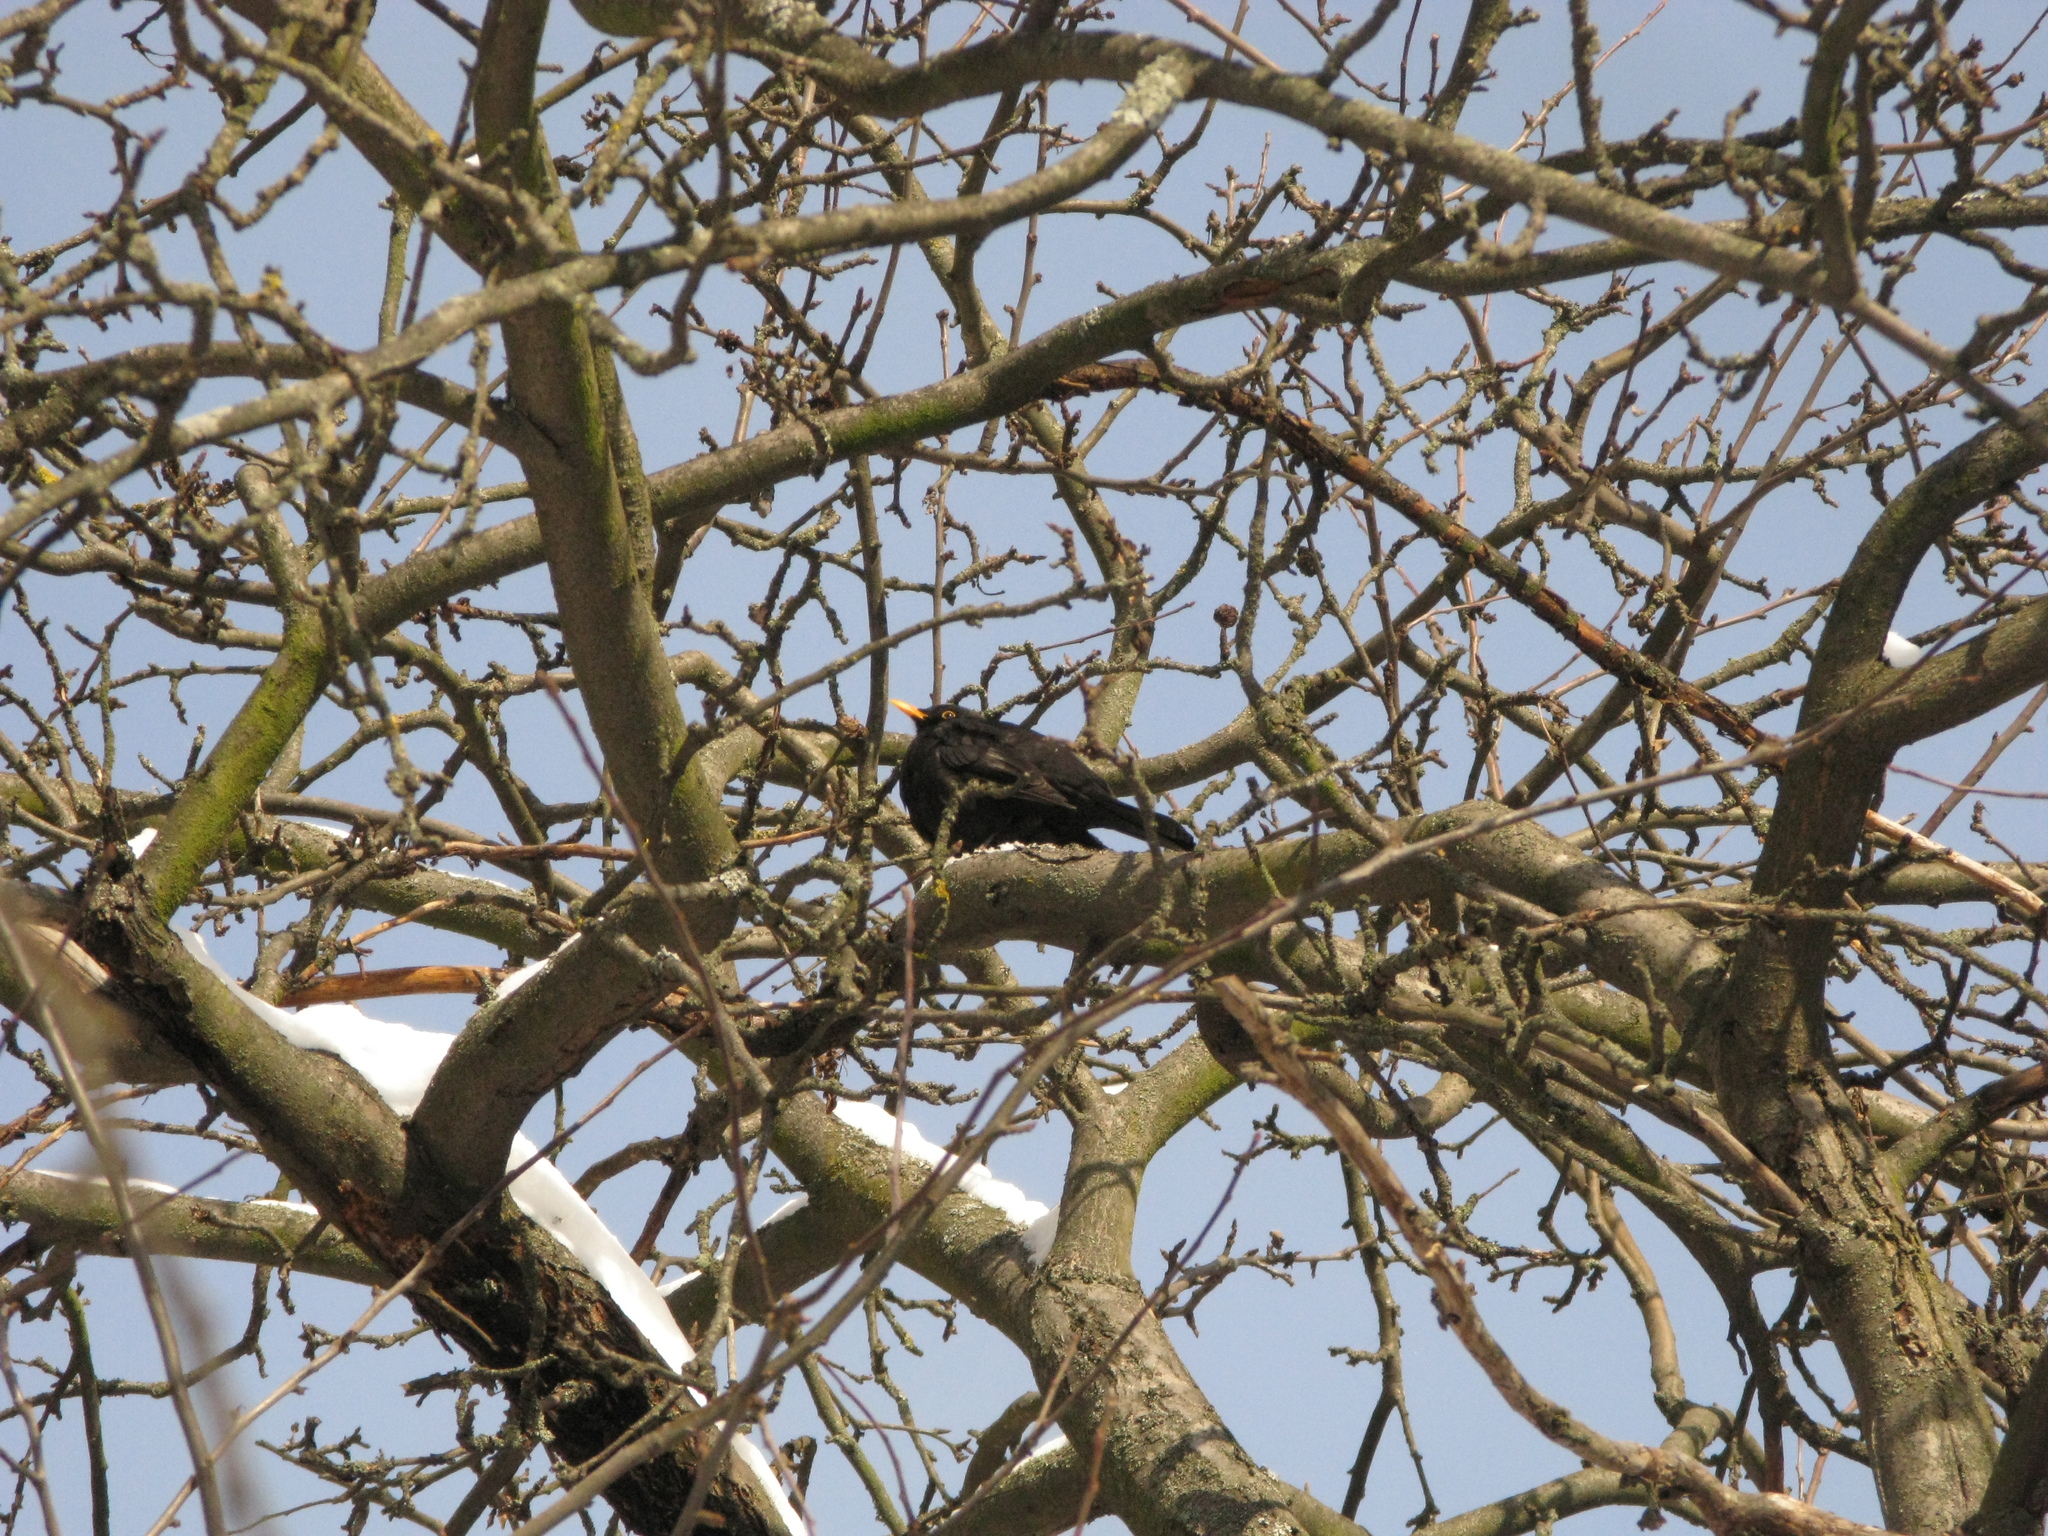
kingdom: Animalia
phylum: Chordata
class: Aves
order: Passeriformes
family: Turdidae
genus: Turdus
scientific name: Turdus merula
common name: Common blackbird
